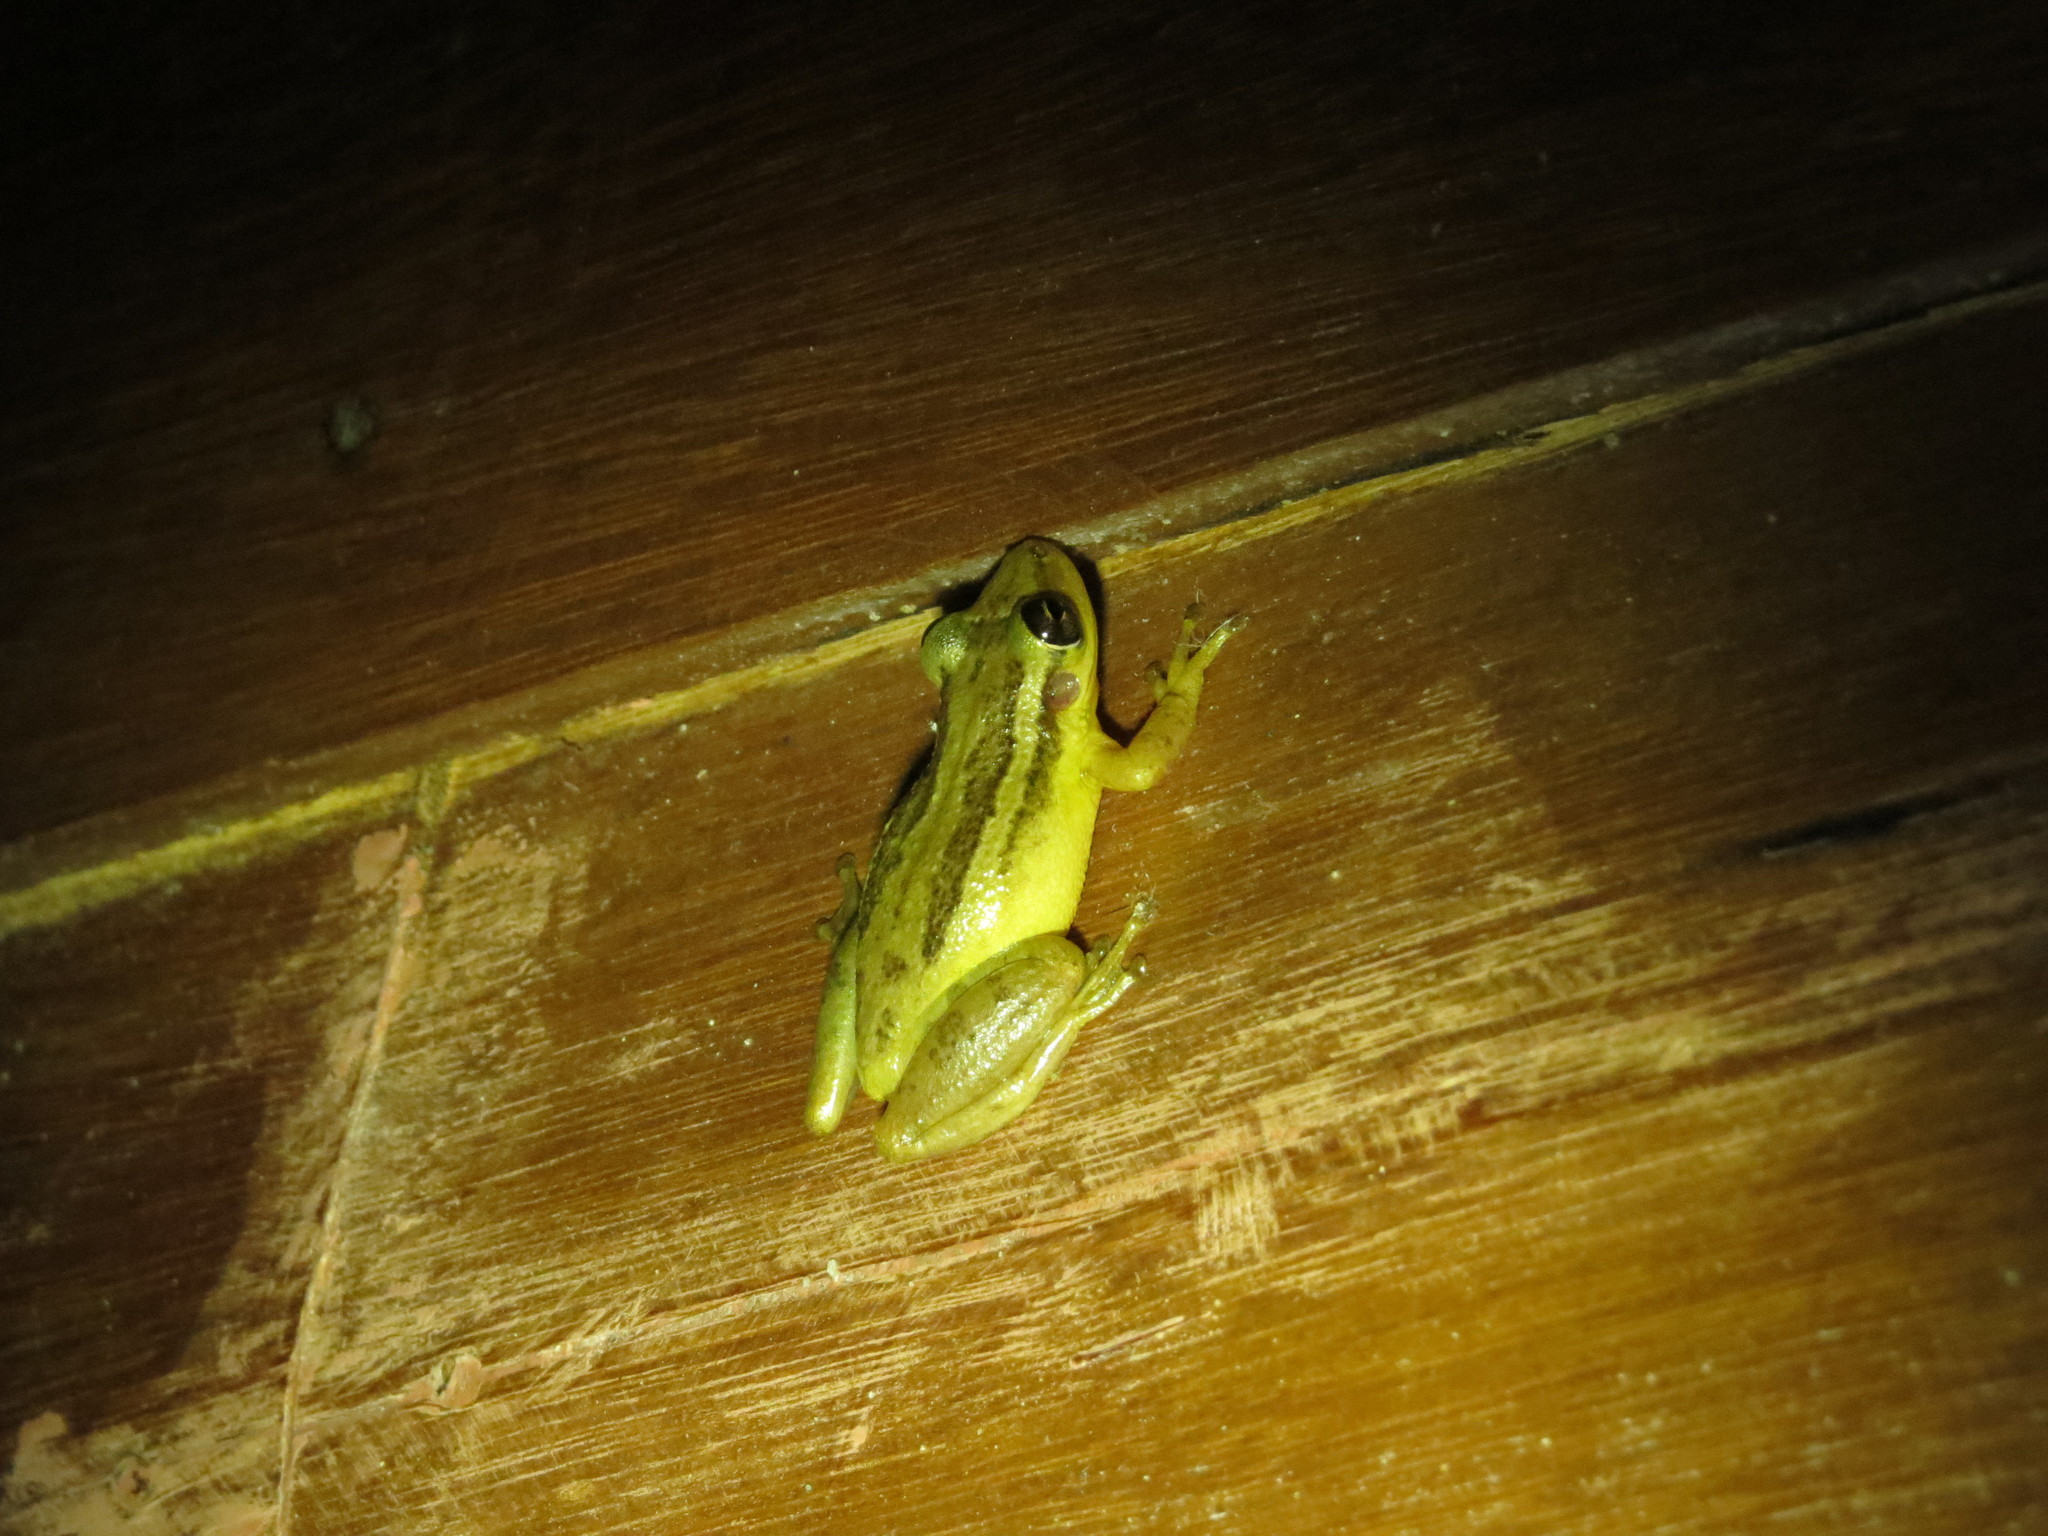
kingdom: Animalia
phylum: Chordata
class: Amphibia
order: Anura
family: Hylidae
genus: Scinax
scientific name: Scinax ruber
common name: Red snouted treefrog
